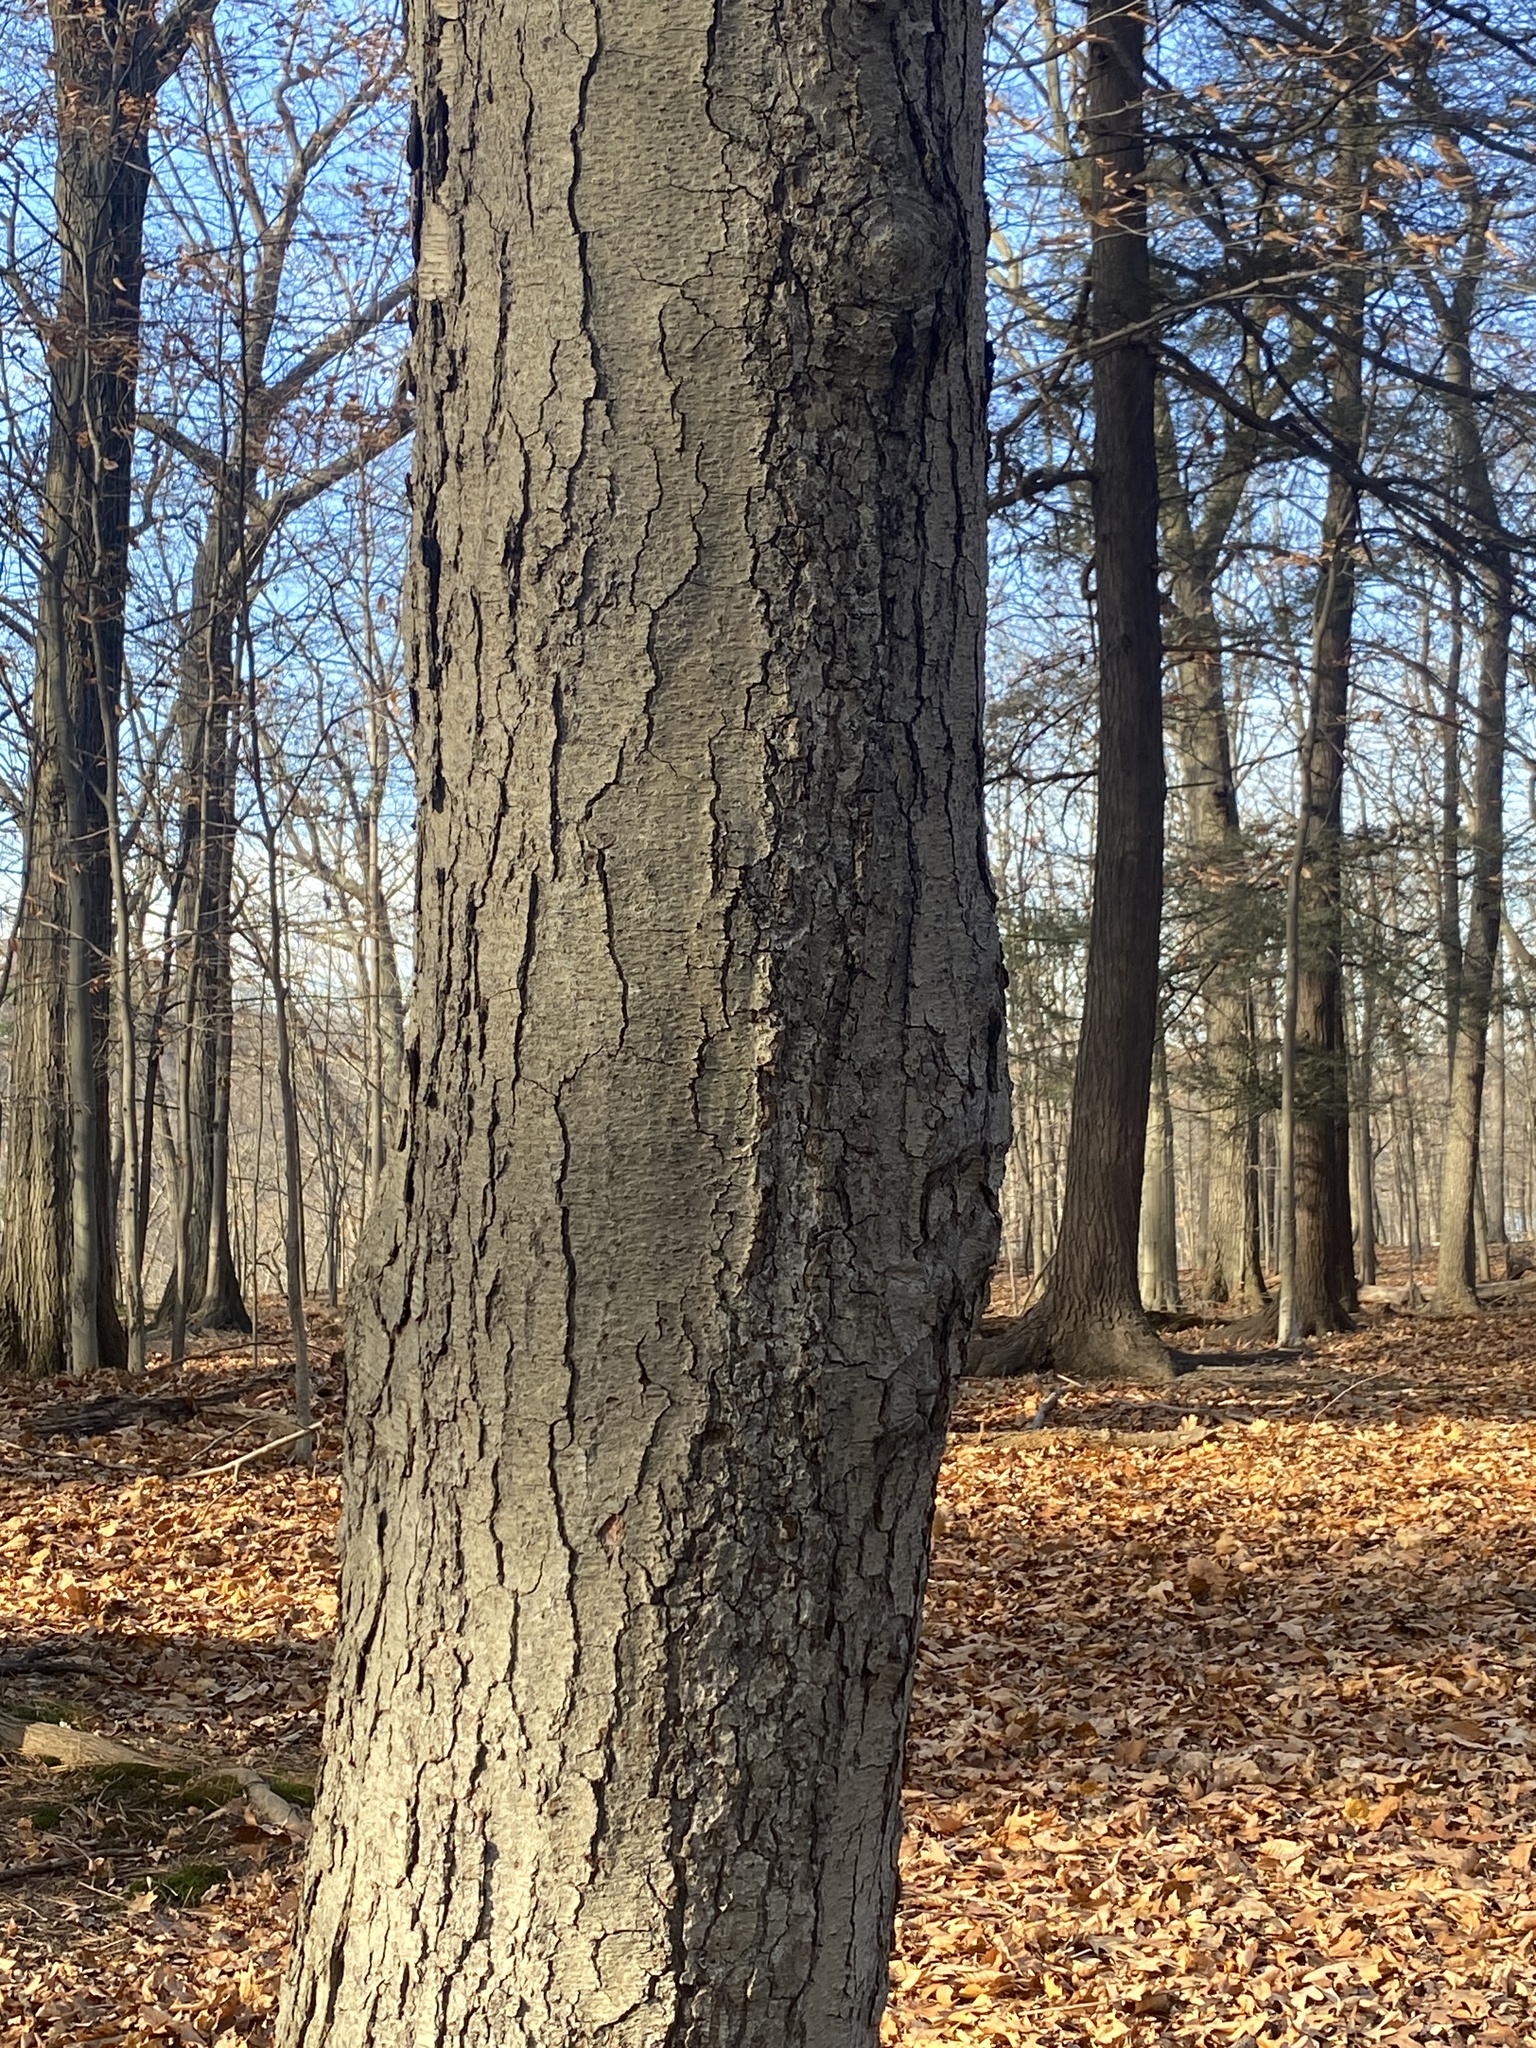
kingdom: Plantae
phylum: Tracheophyta
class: Magnoliopsida
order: Fagales
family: Betulaceae
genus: Betula
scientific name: Betula lenta
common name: Black birch
